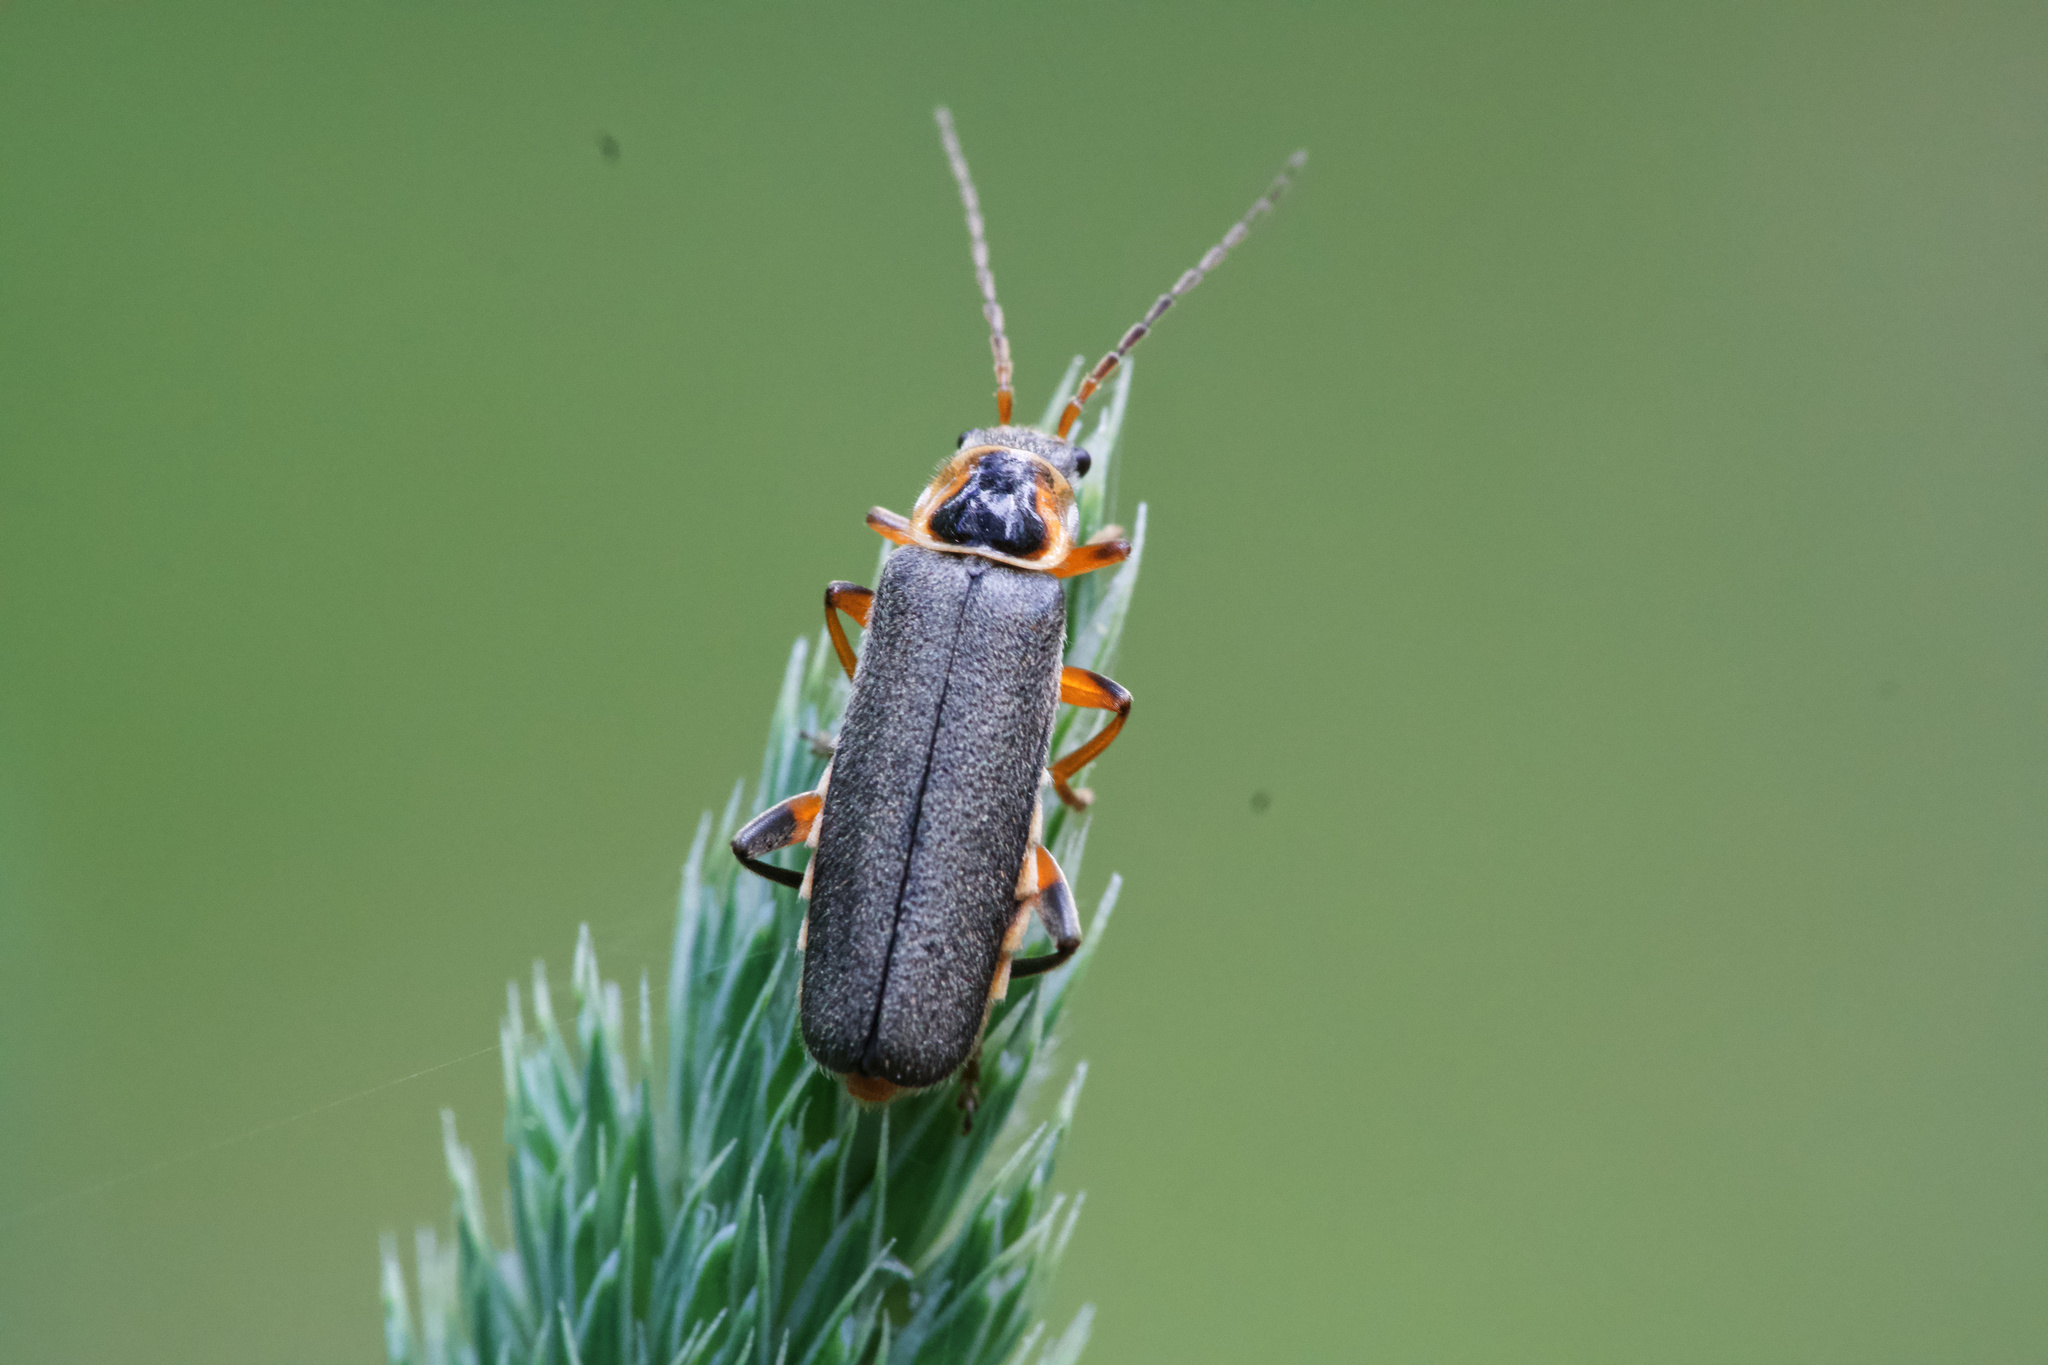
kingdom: Animalia
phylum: Arthropoda
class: Insecta
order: Coleoptera
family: Cantharidae
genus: Cantharis
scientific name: Cantharis nigricans
